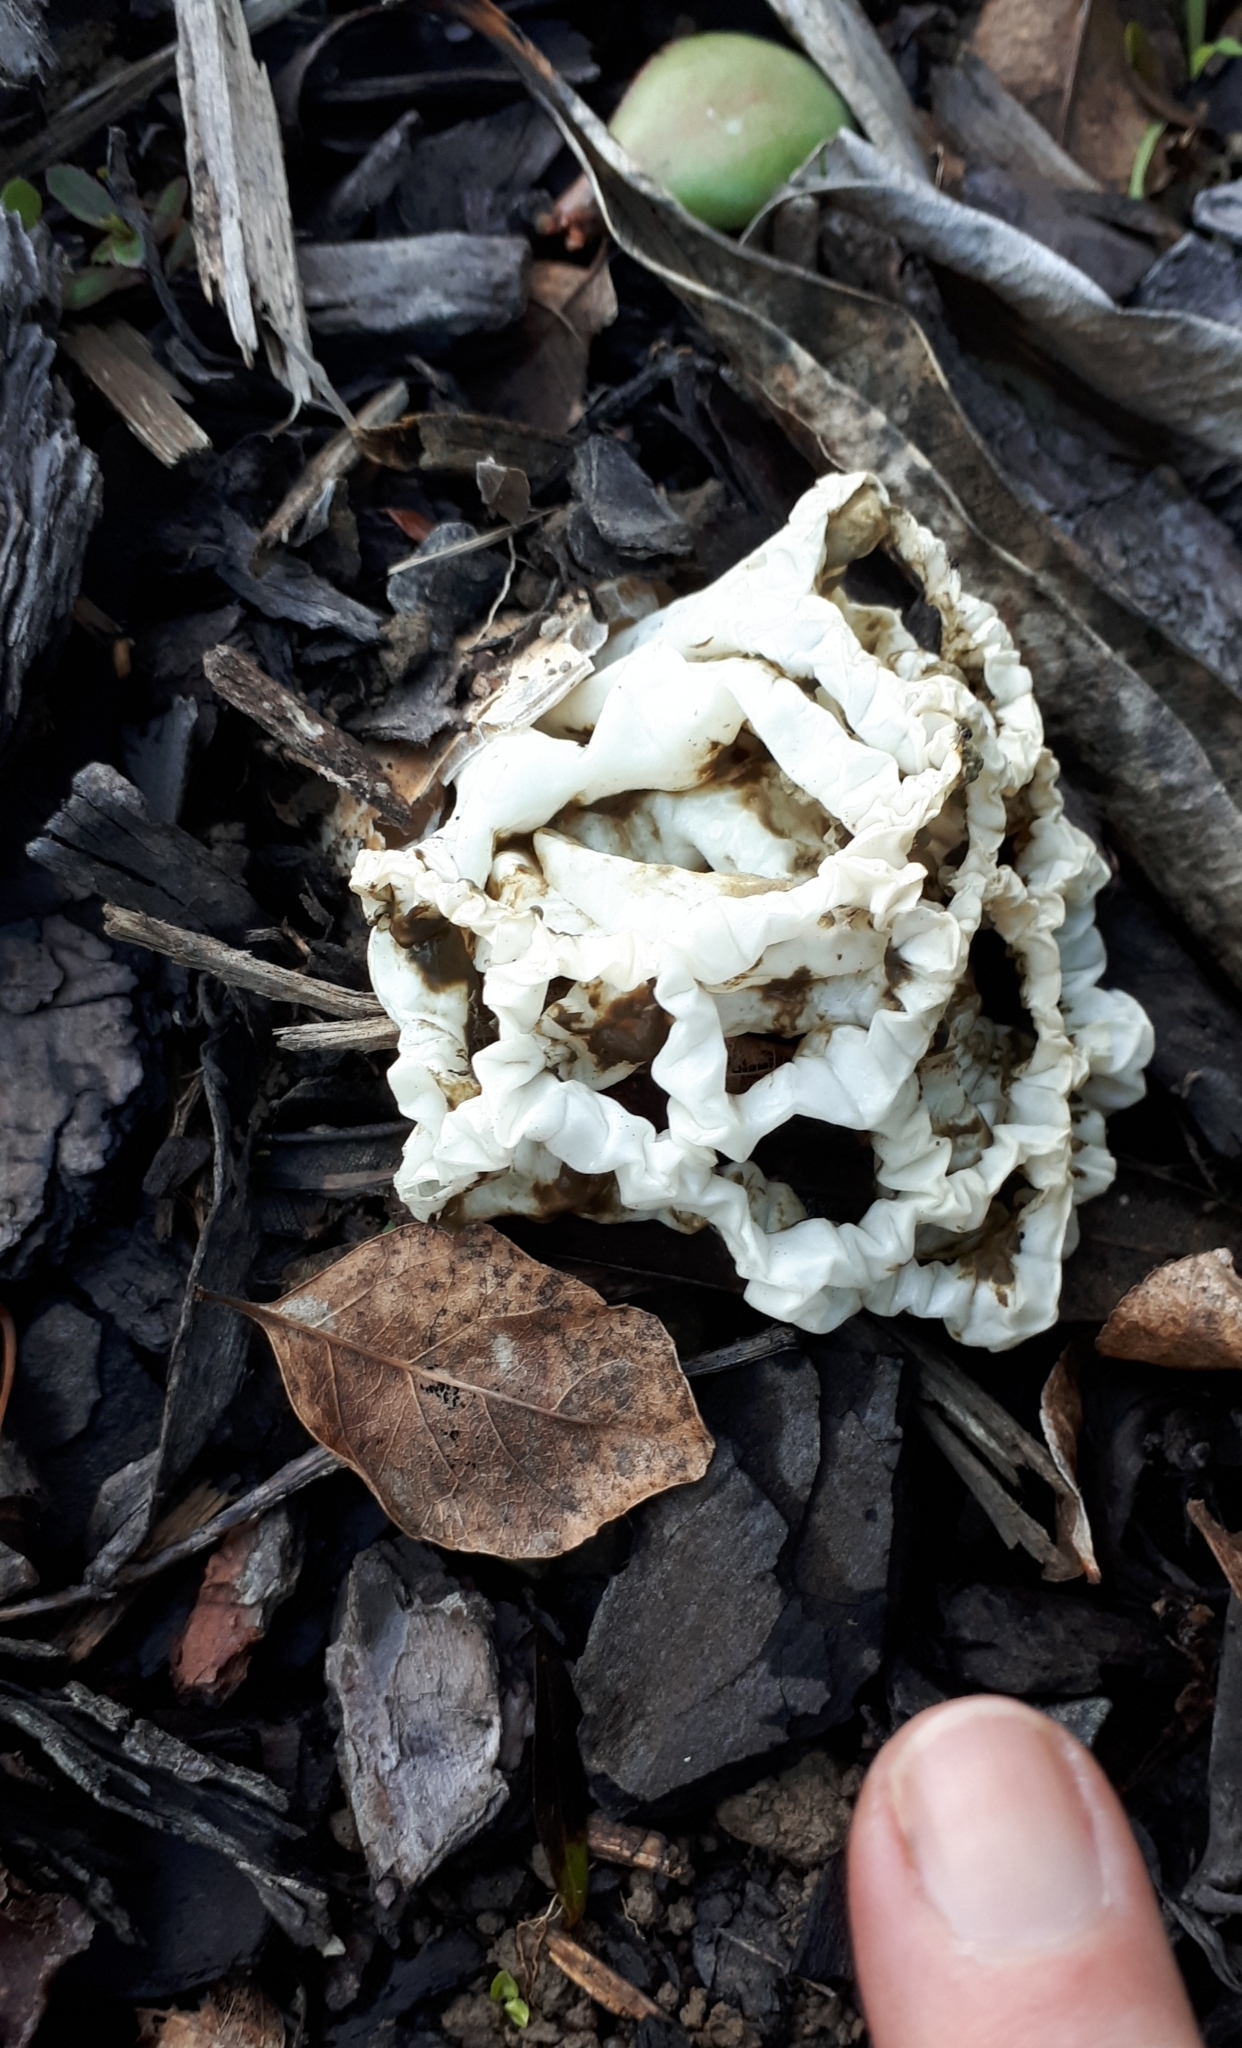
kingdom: Fungi
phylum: Basidiomycota
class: Agaricomycetes
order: Phallales
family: Phallaceae
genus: Ileodictyon
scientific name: Ileodictyon cibarium
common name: Basket fungus
